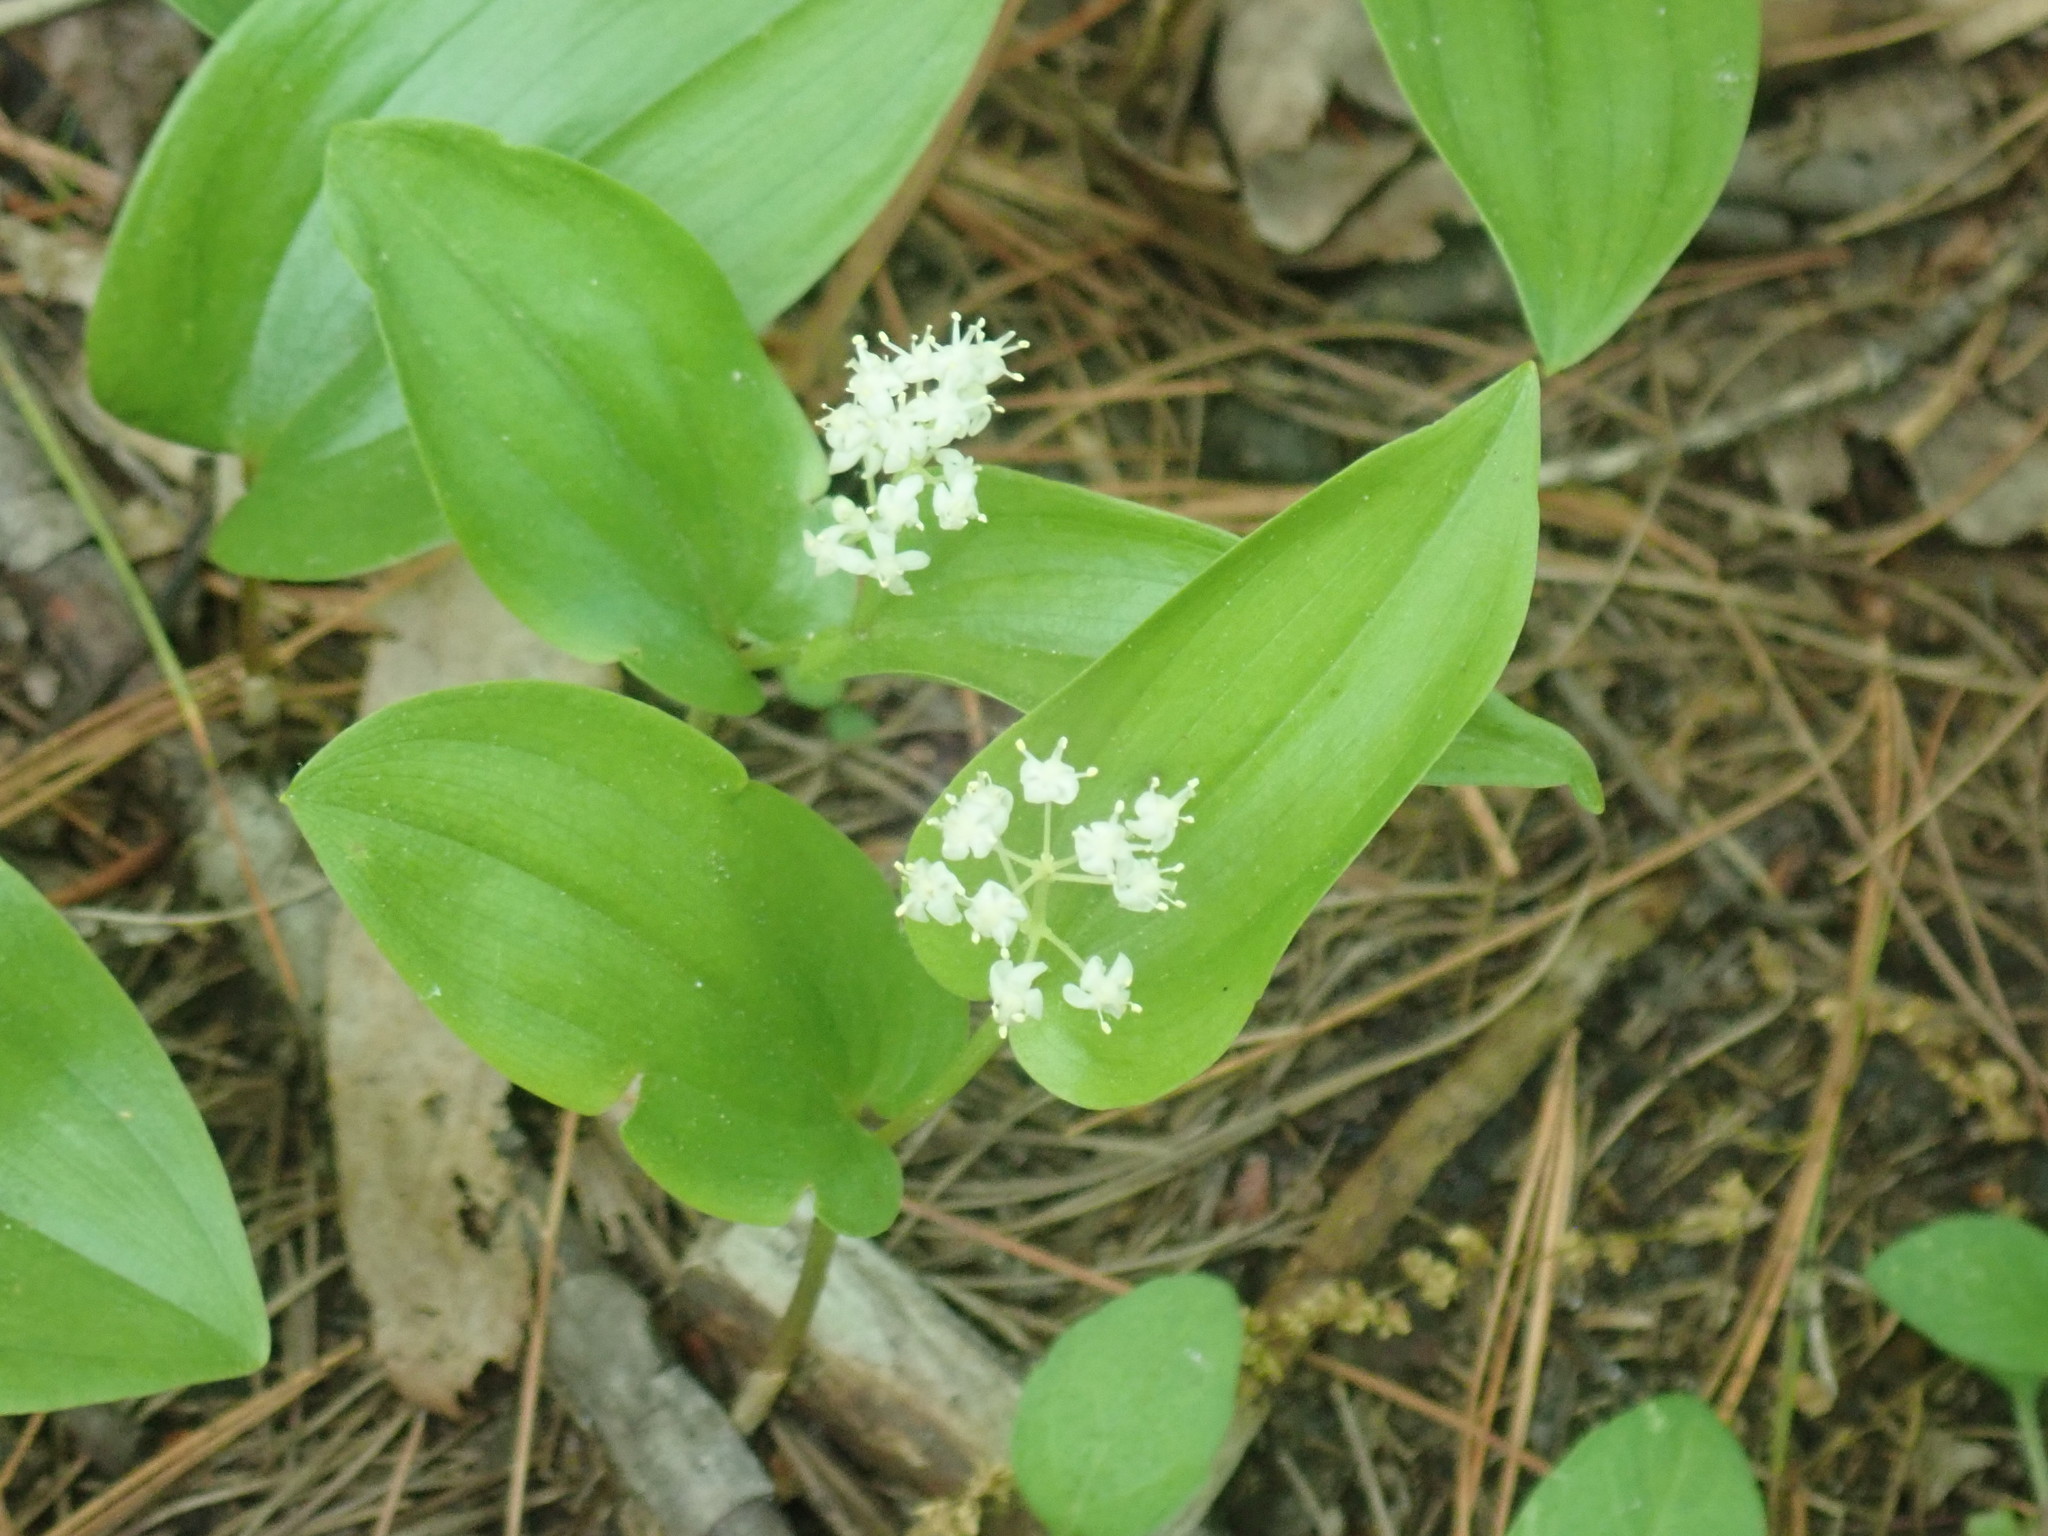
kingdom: Plantae
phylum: Tracheophyta
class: Liliopsida
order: Asparagales
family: Asparagaceae
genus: Maianthemum
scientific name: Maianthemum canadense
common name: False lily-of-the-valley
